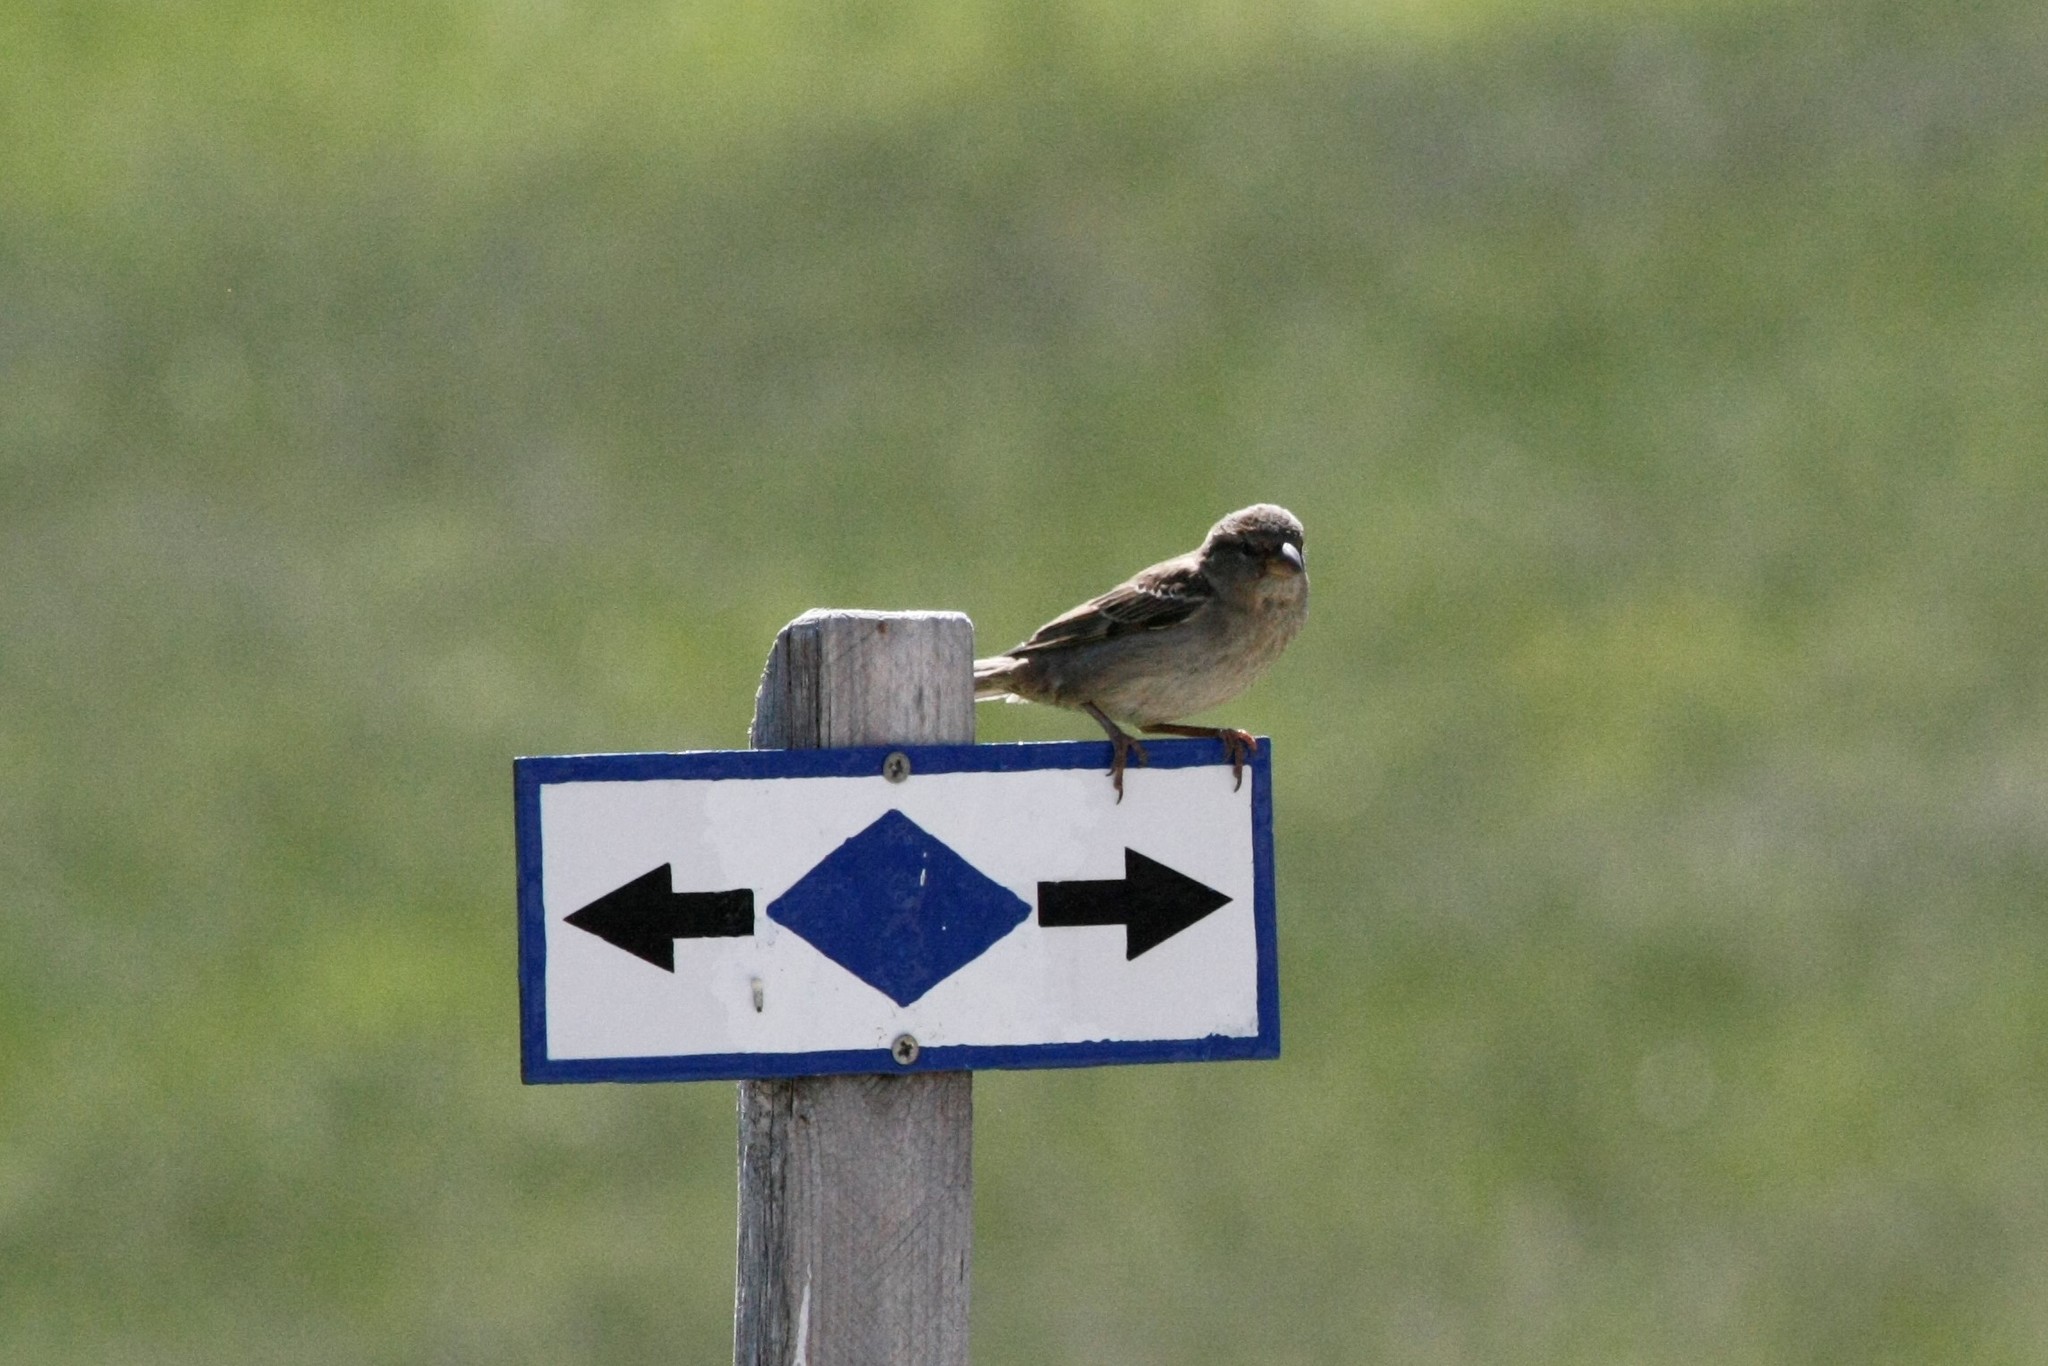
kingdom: Animalia
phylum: Chordata
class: Aves
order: Passeriformes
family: Passeridae
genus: Passer
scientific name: Passer domesticus
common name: House sparrow
